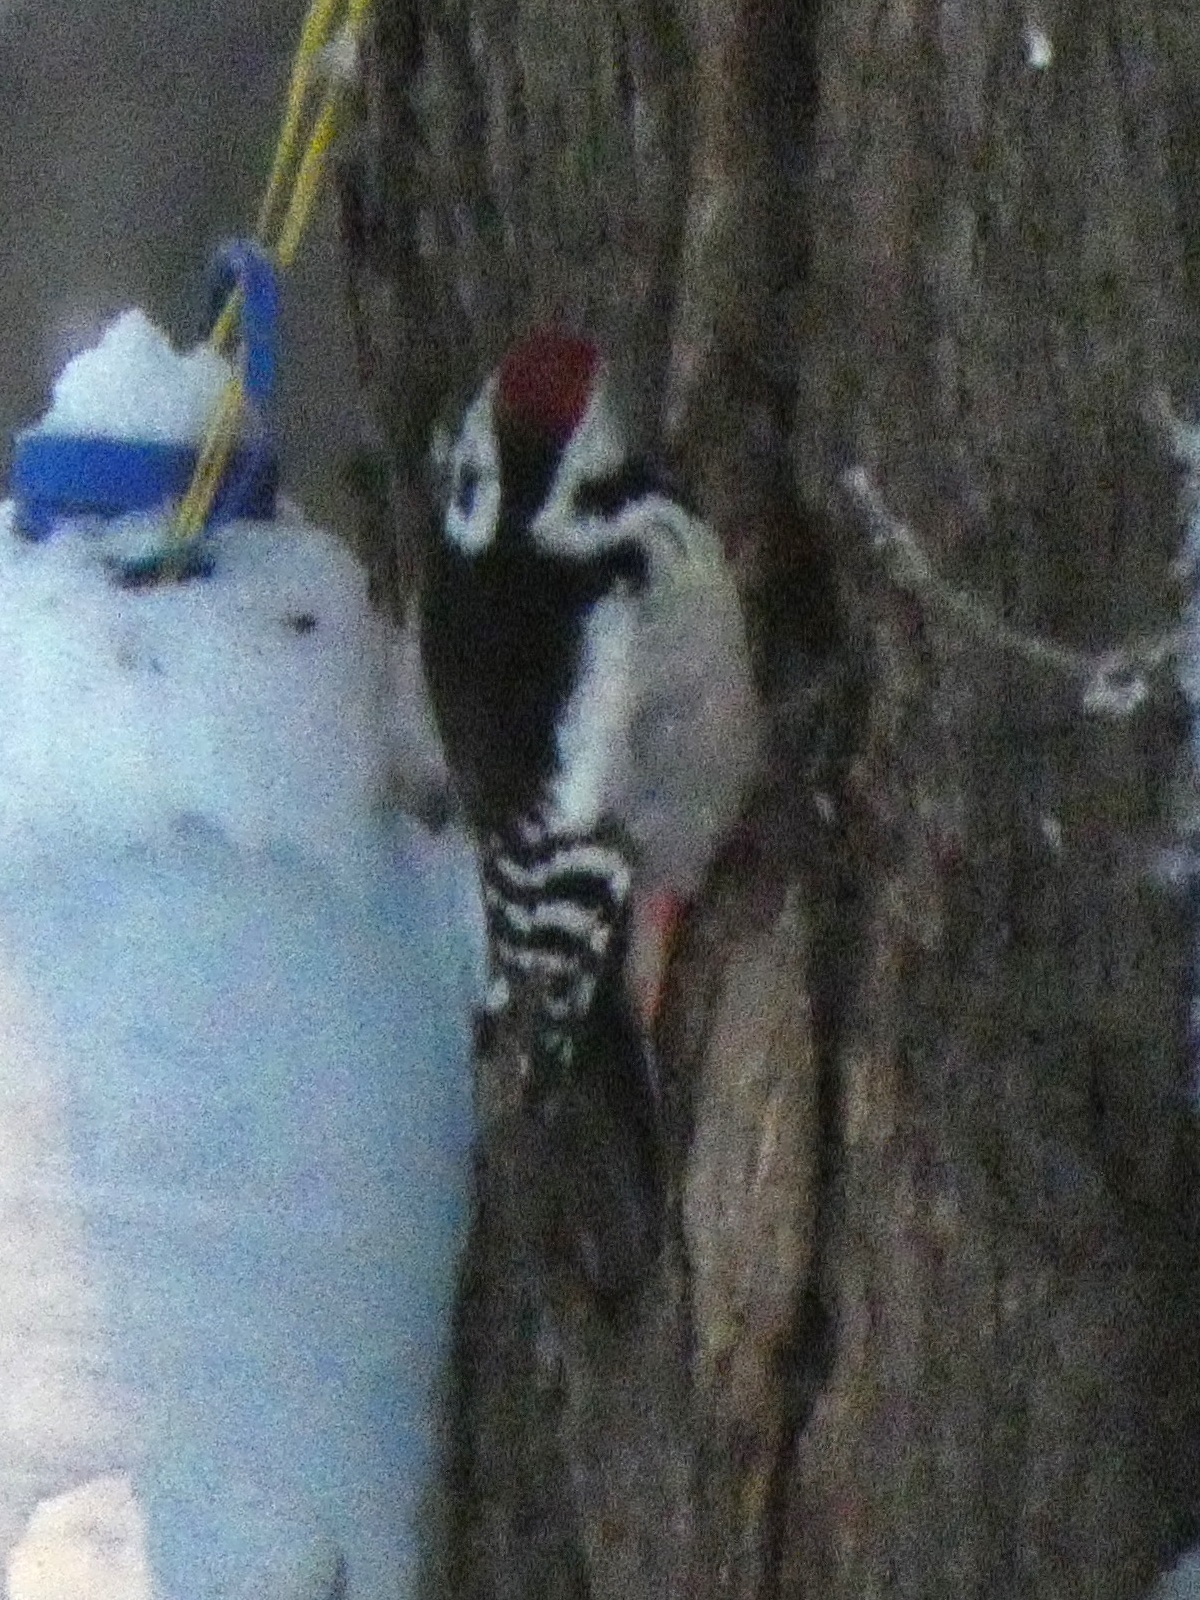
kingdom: Animalia
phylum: Chordata
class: Aves
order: Piciformes
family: Picidae
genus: Dendrocoptes
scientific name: Dendrocoptes medius
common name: Middle spotted woodpecker
